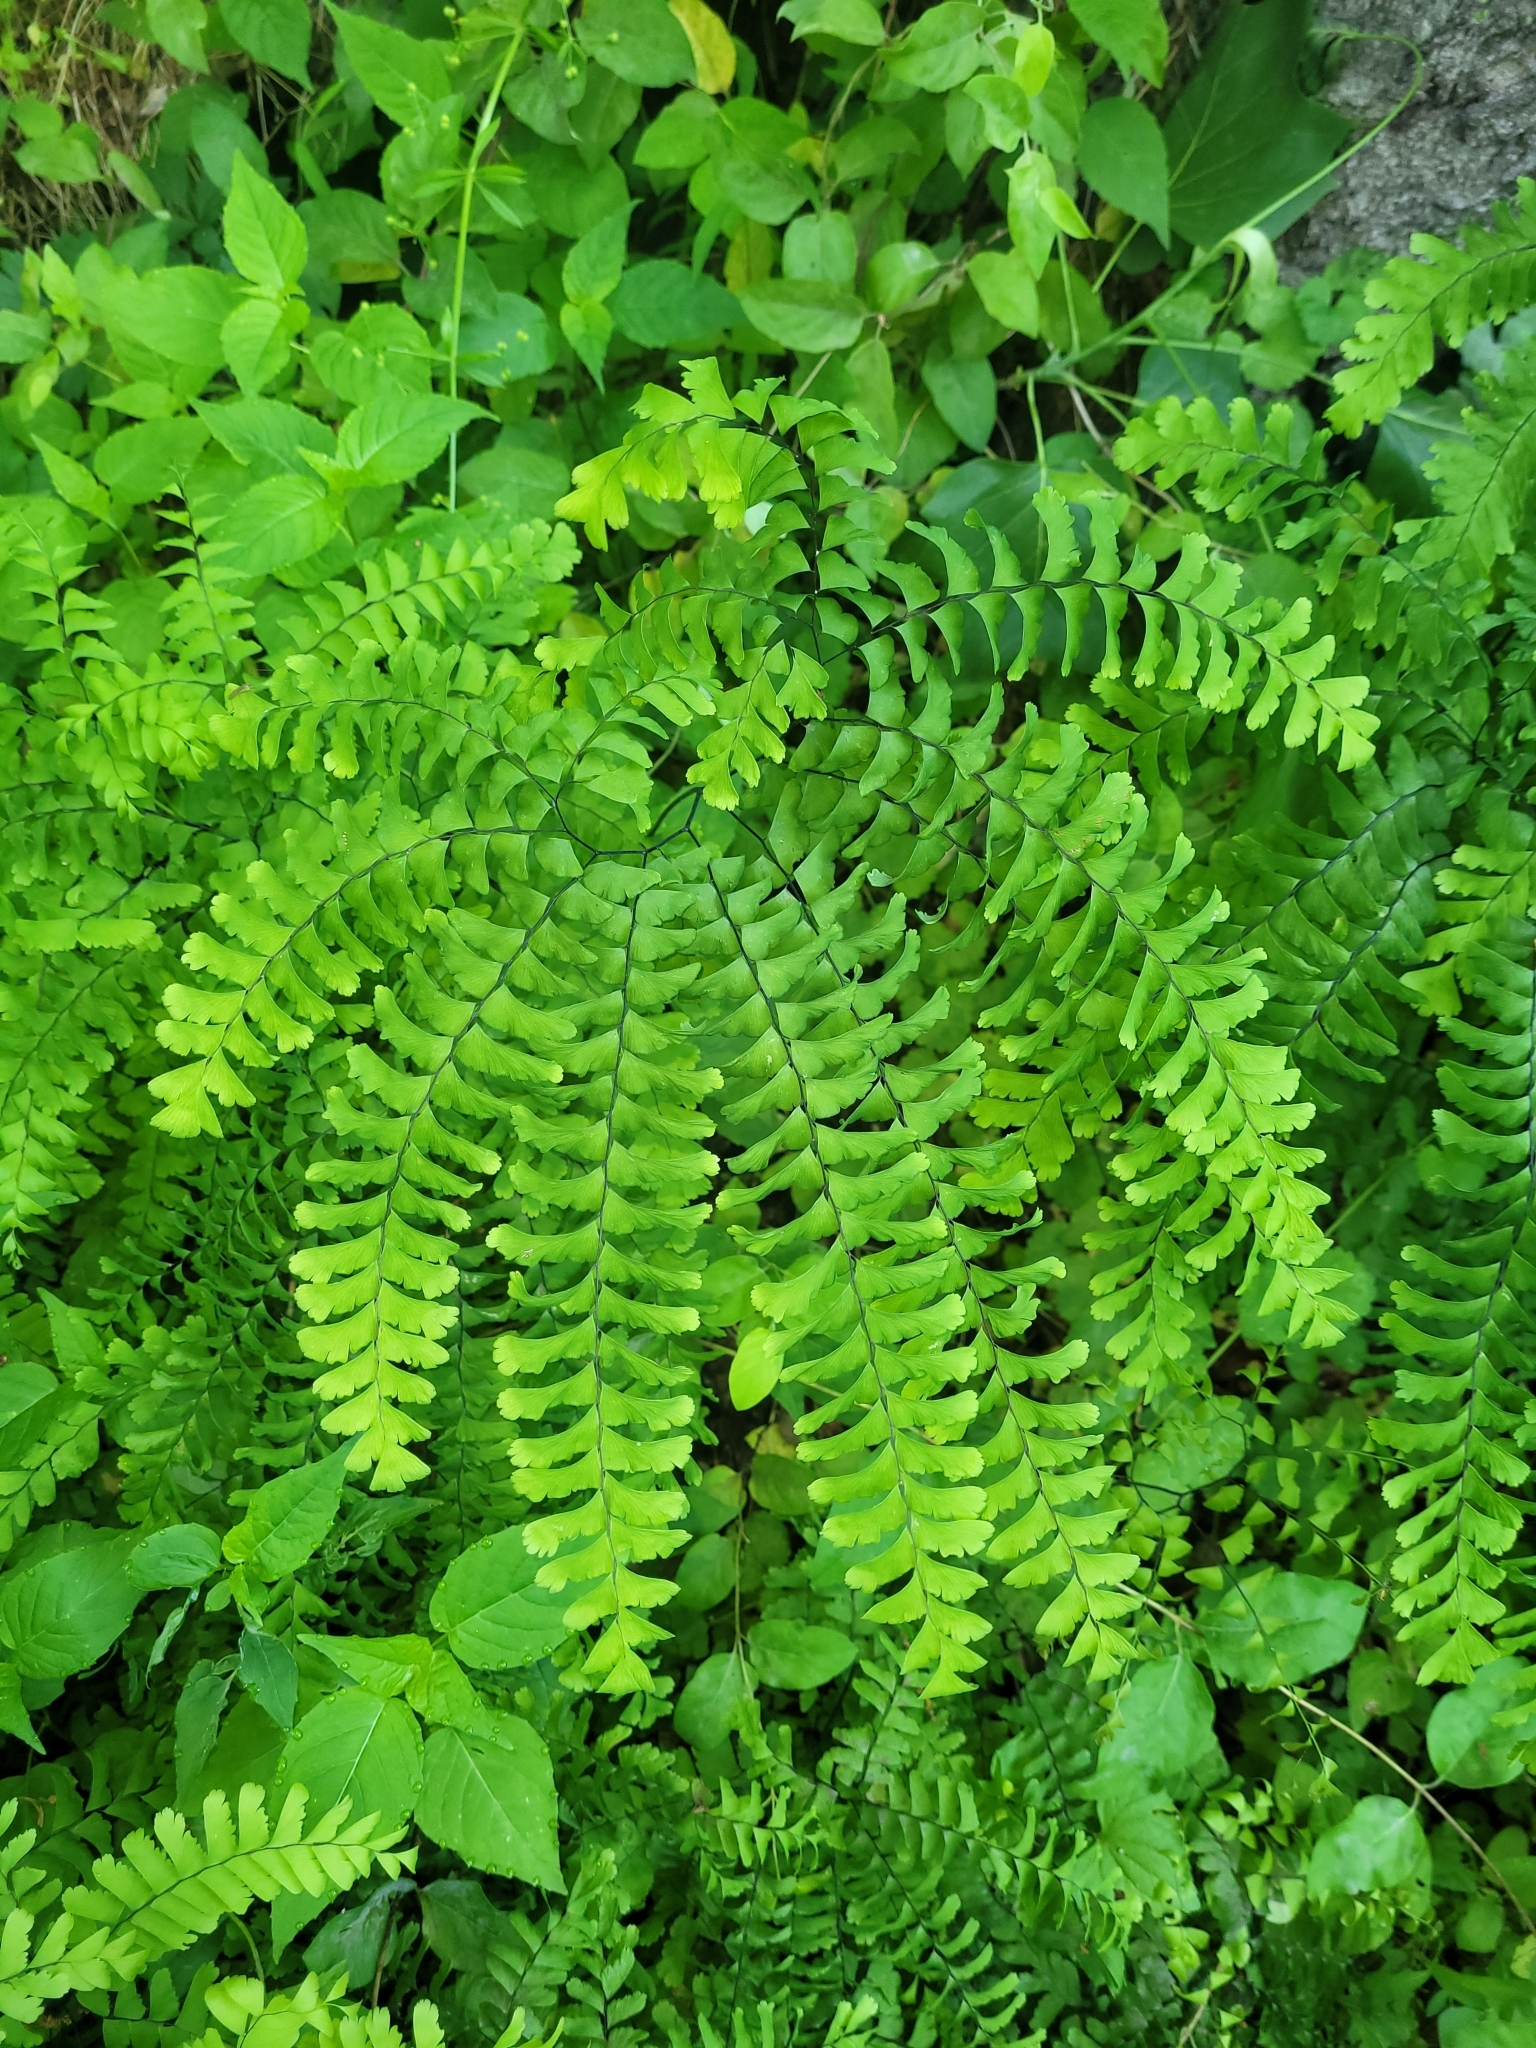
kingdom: Plantae
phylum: Tracheophyta
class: Polypodiopsida
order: Polypodiales
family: Pteridaceae
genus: Adiantum
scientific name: Adiantum pedatum
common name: Five-finger fern
